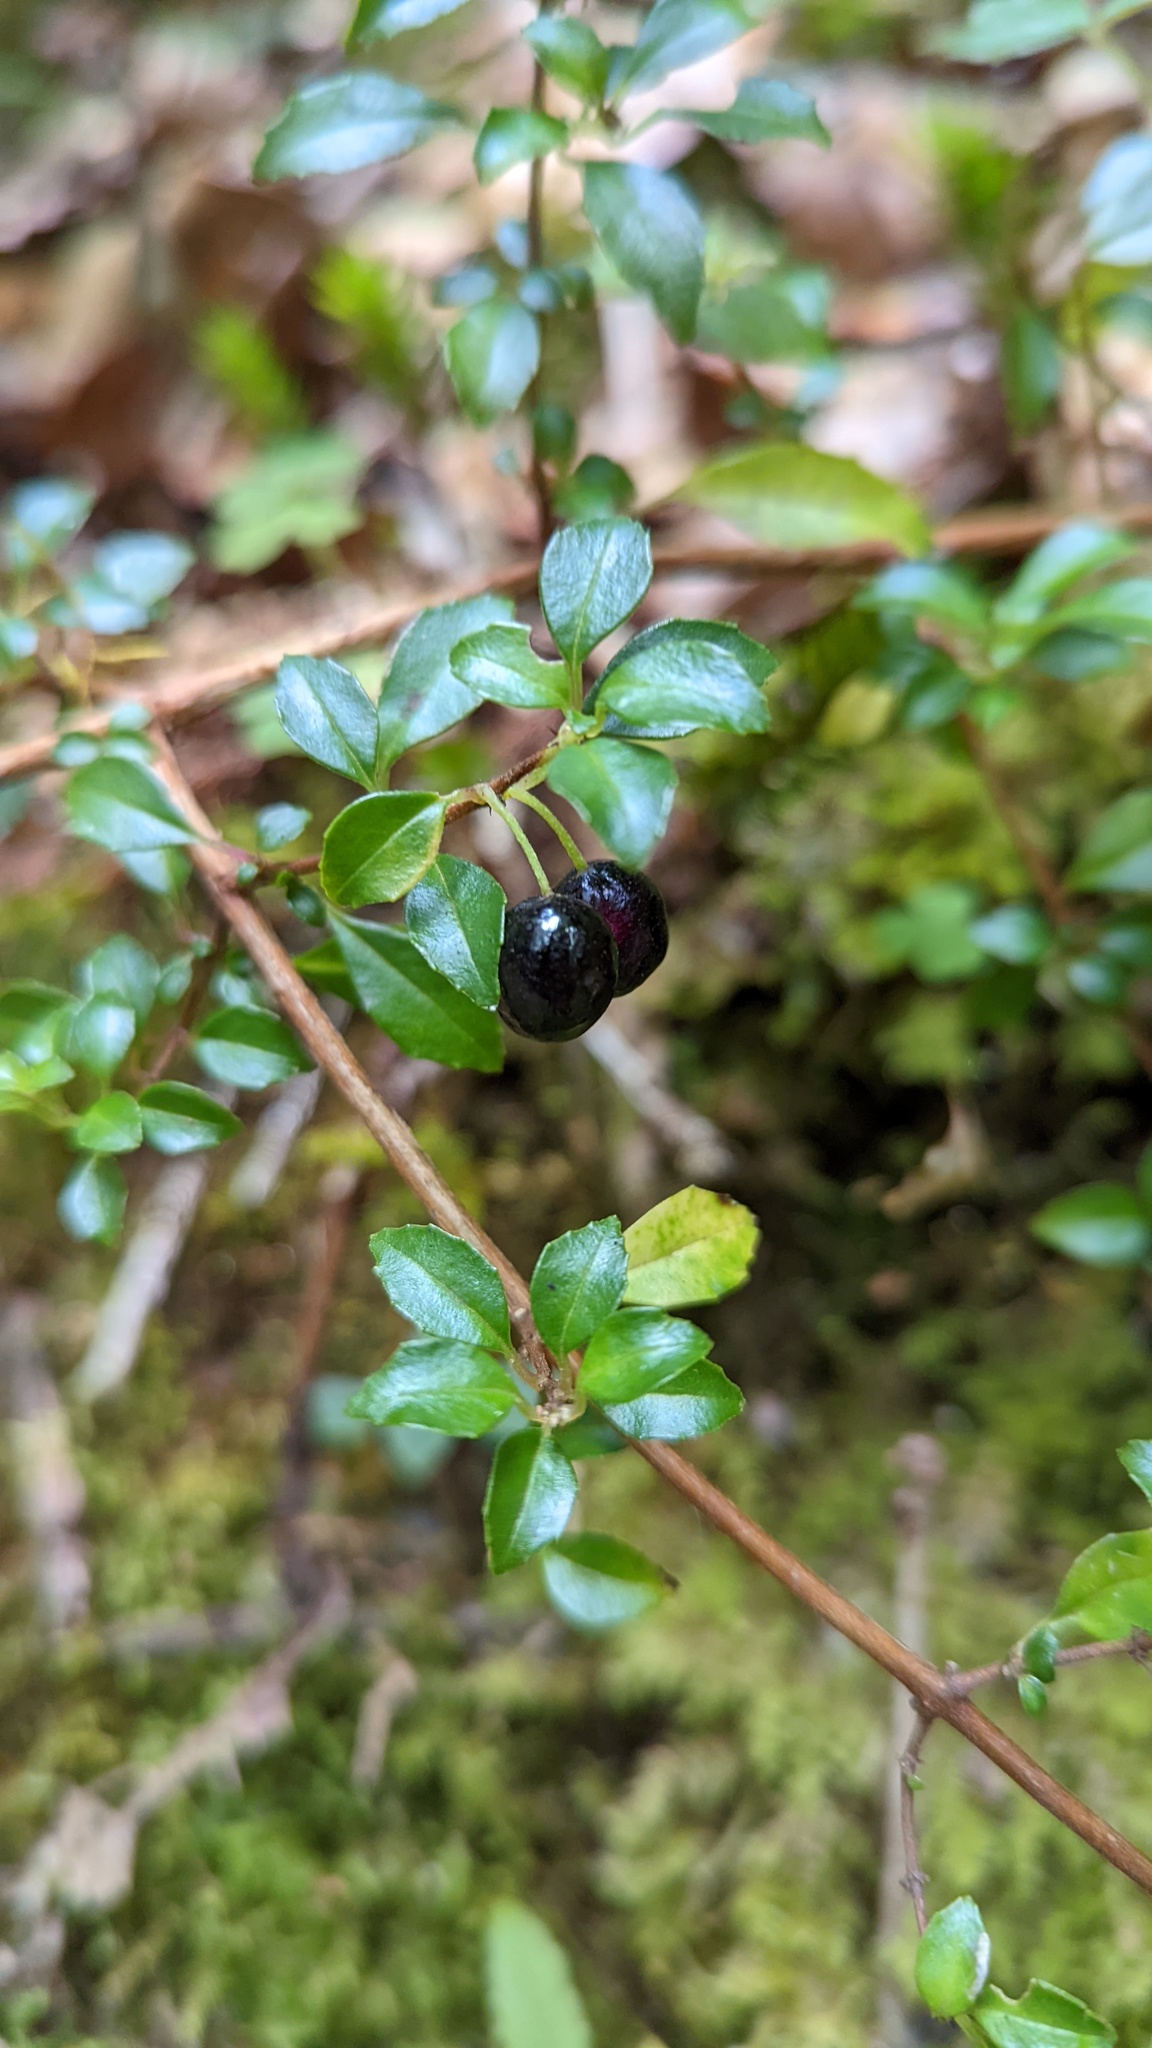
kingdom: Plantae
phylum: Tracheophyta
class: Magnoliopsida
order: Myrtales
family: Onagraceae
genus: Fuchsia
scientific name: Fuchsia microphylla
